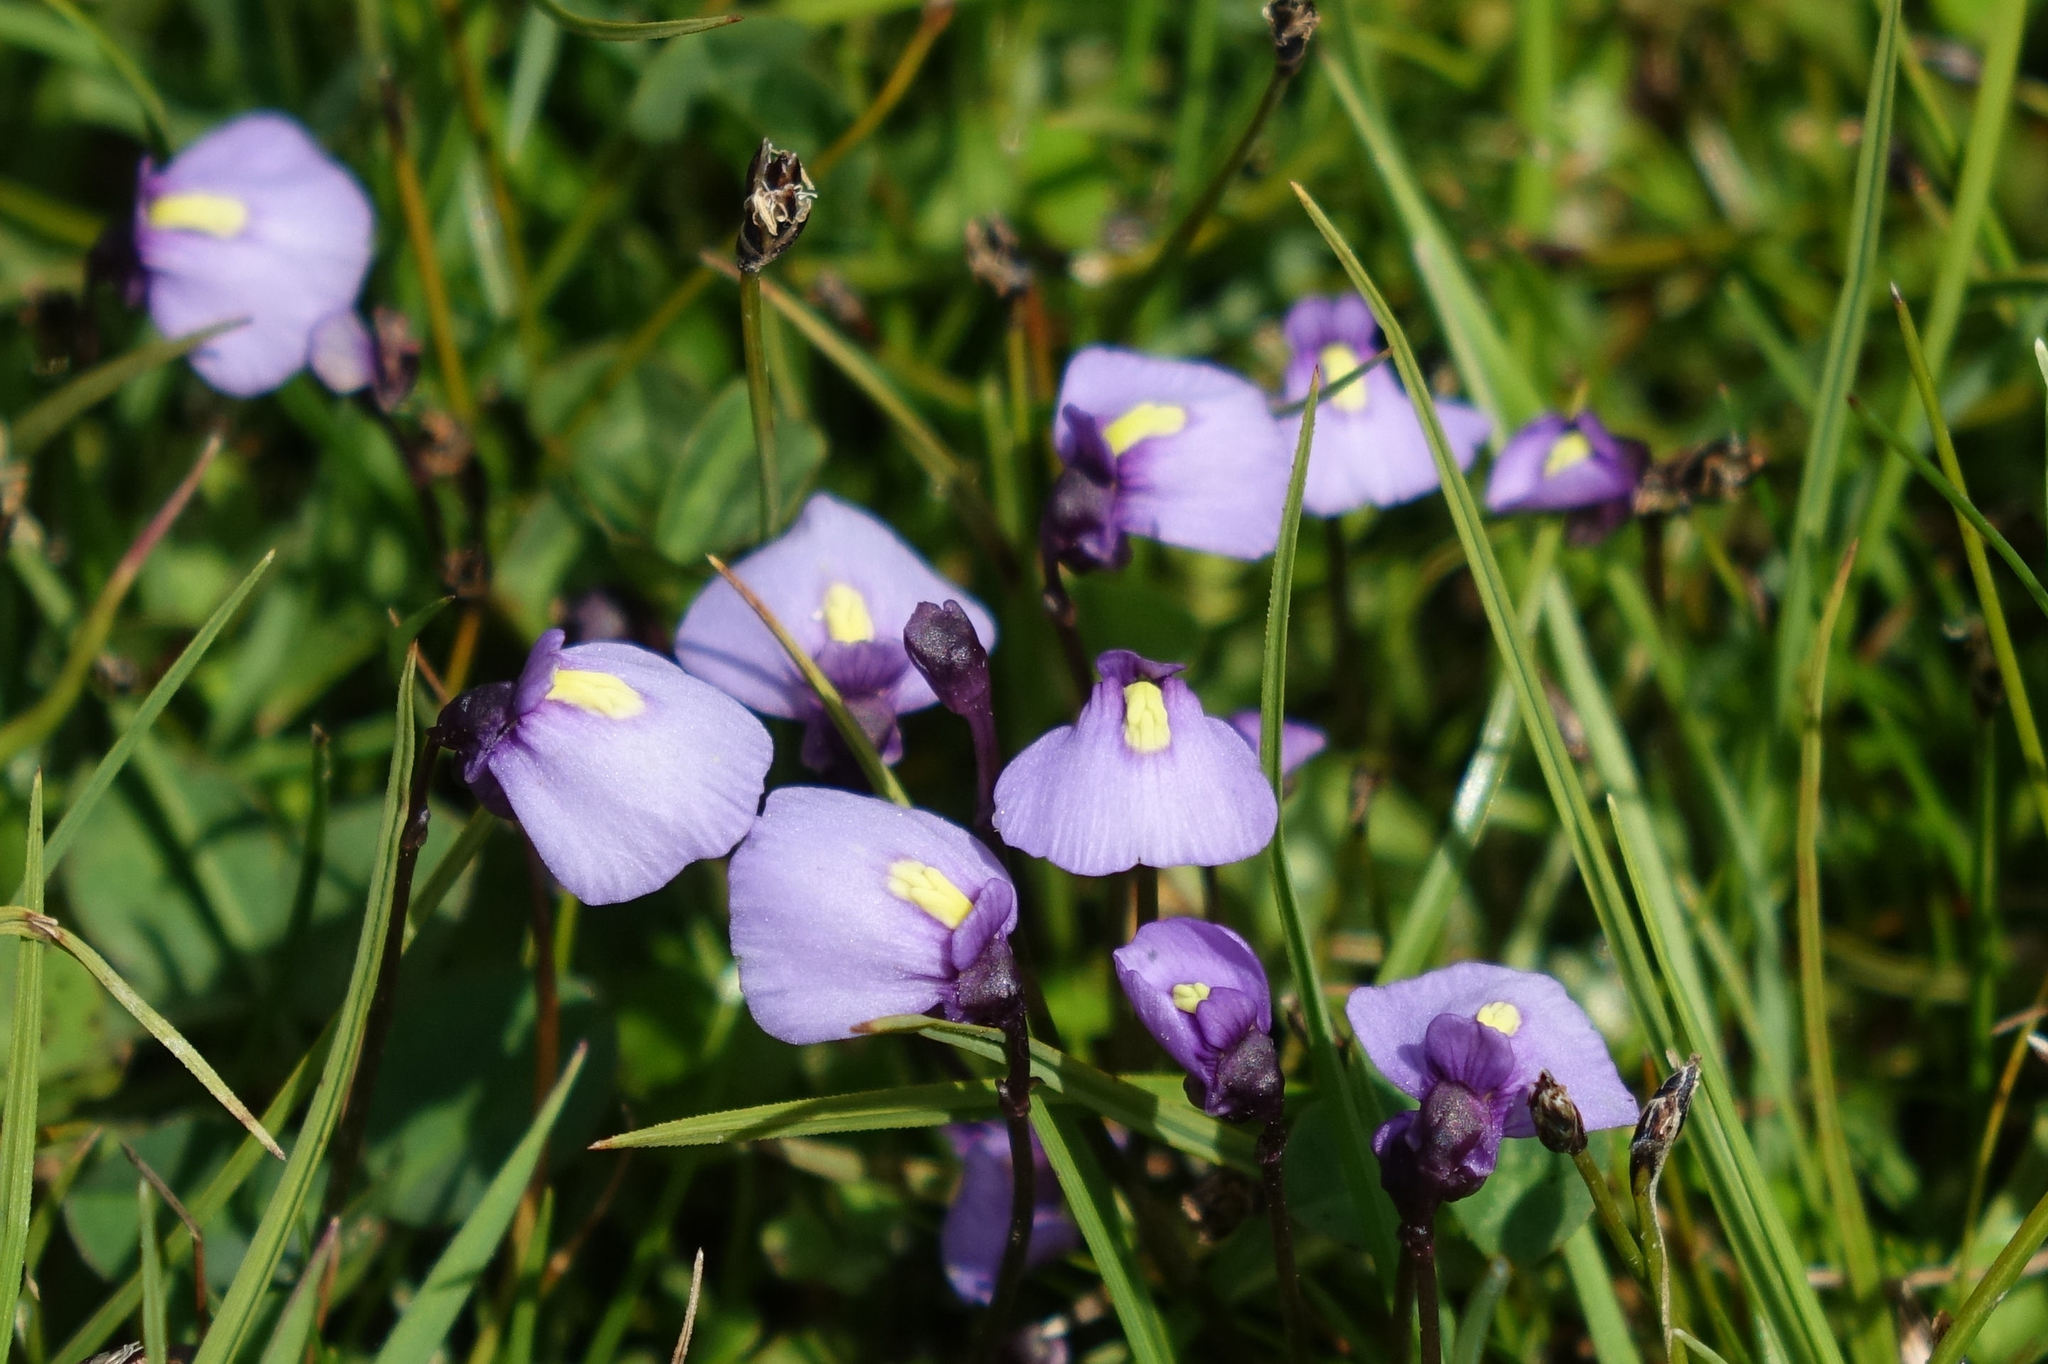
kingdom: Plantae
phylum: Tracheophyta
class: Magnoliopsida
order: Lamiales
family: Lentibulariaceae
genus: Utricularia
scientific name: Utricularia dichotoma
